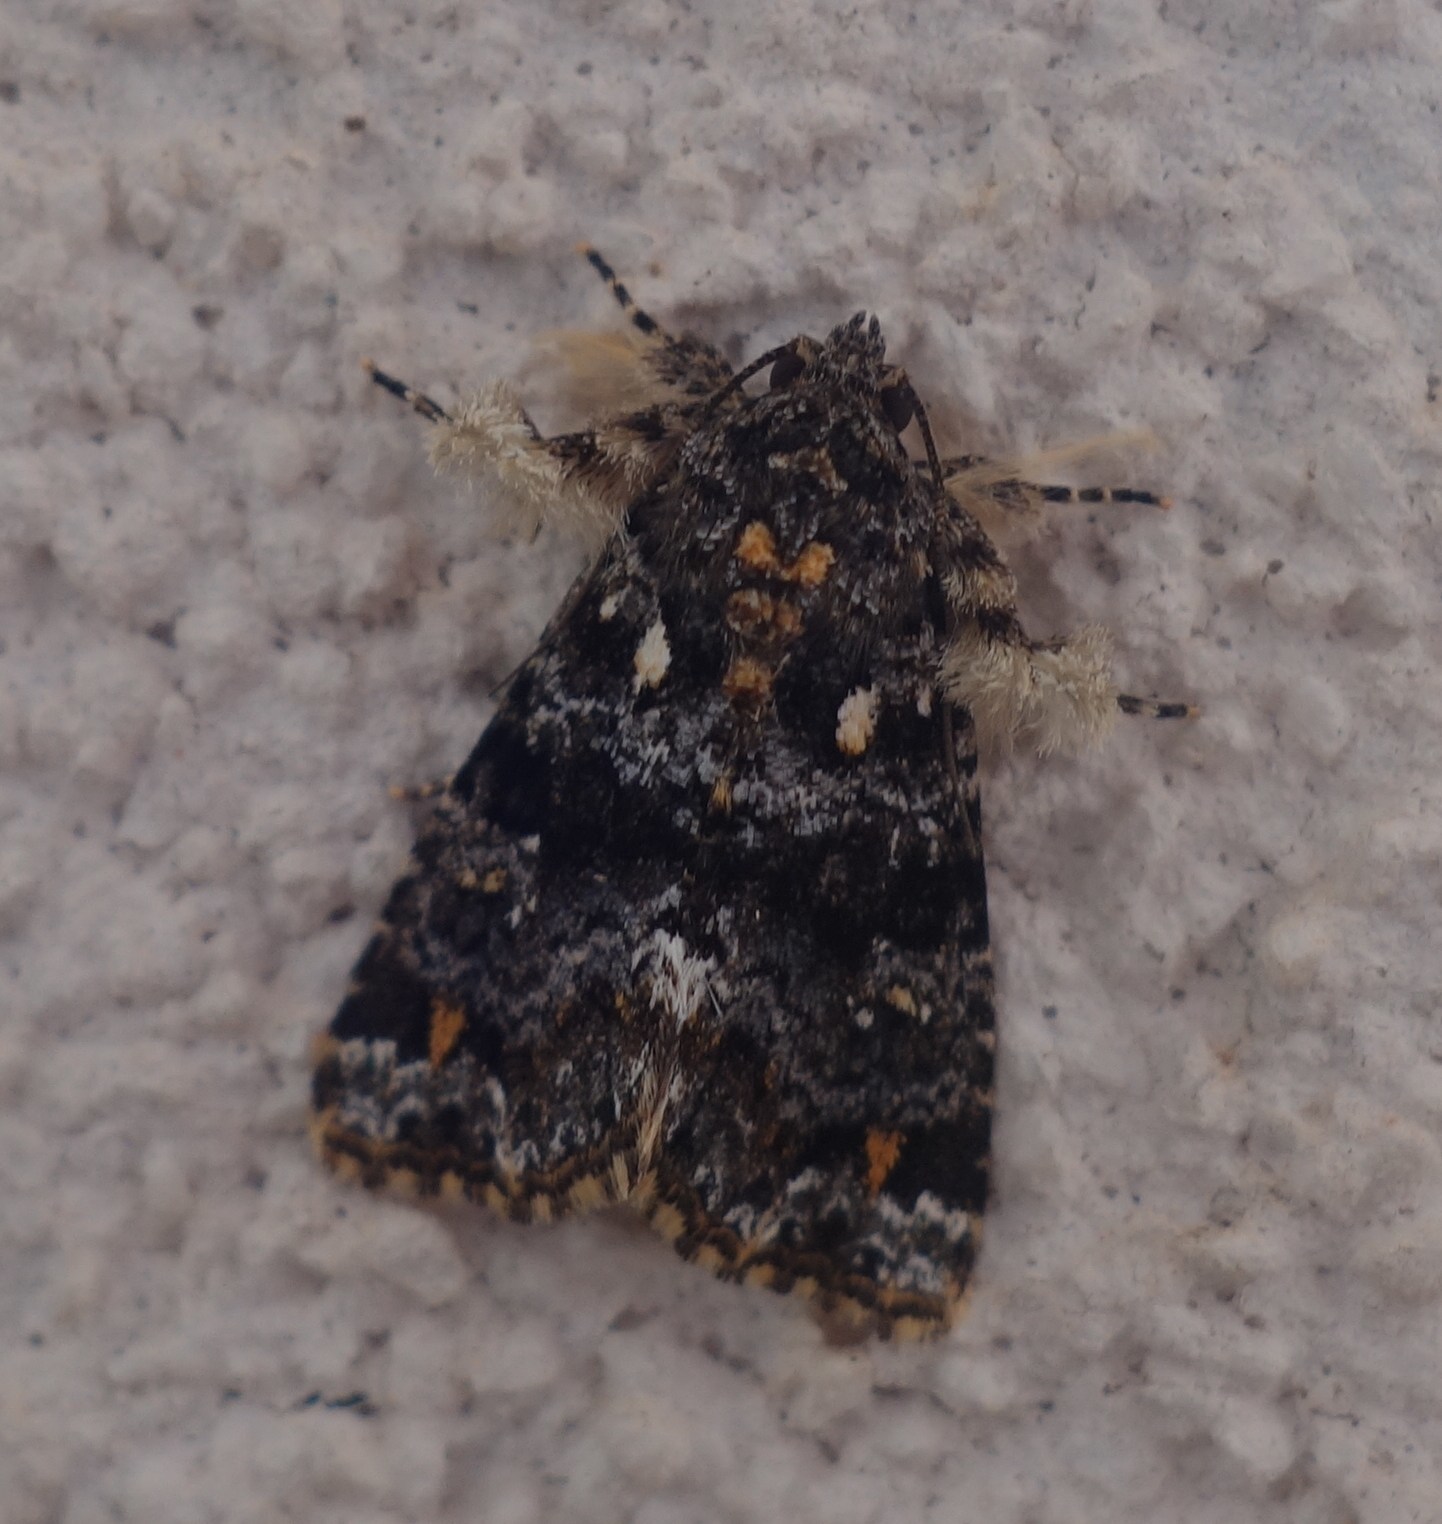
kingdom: Animalia
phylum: Arthropoda
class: Insecta
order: Lepidoptera
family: Noctuidae
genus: Callopistria
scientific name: Callopistria latreillei
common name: Latreille's latin
